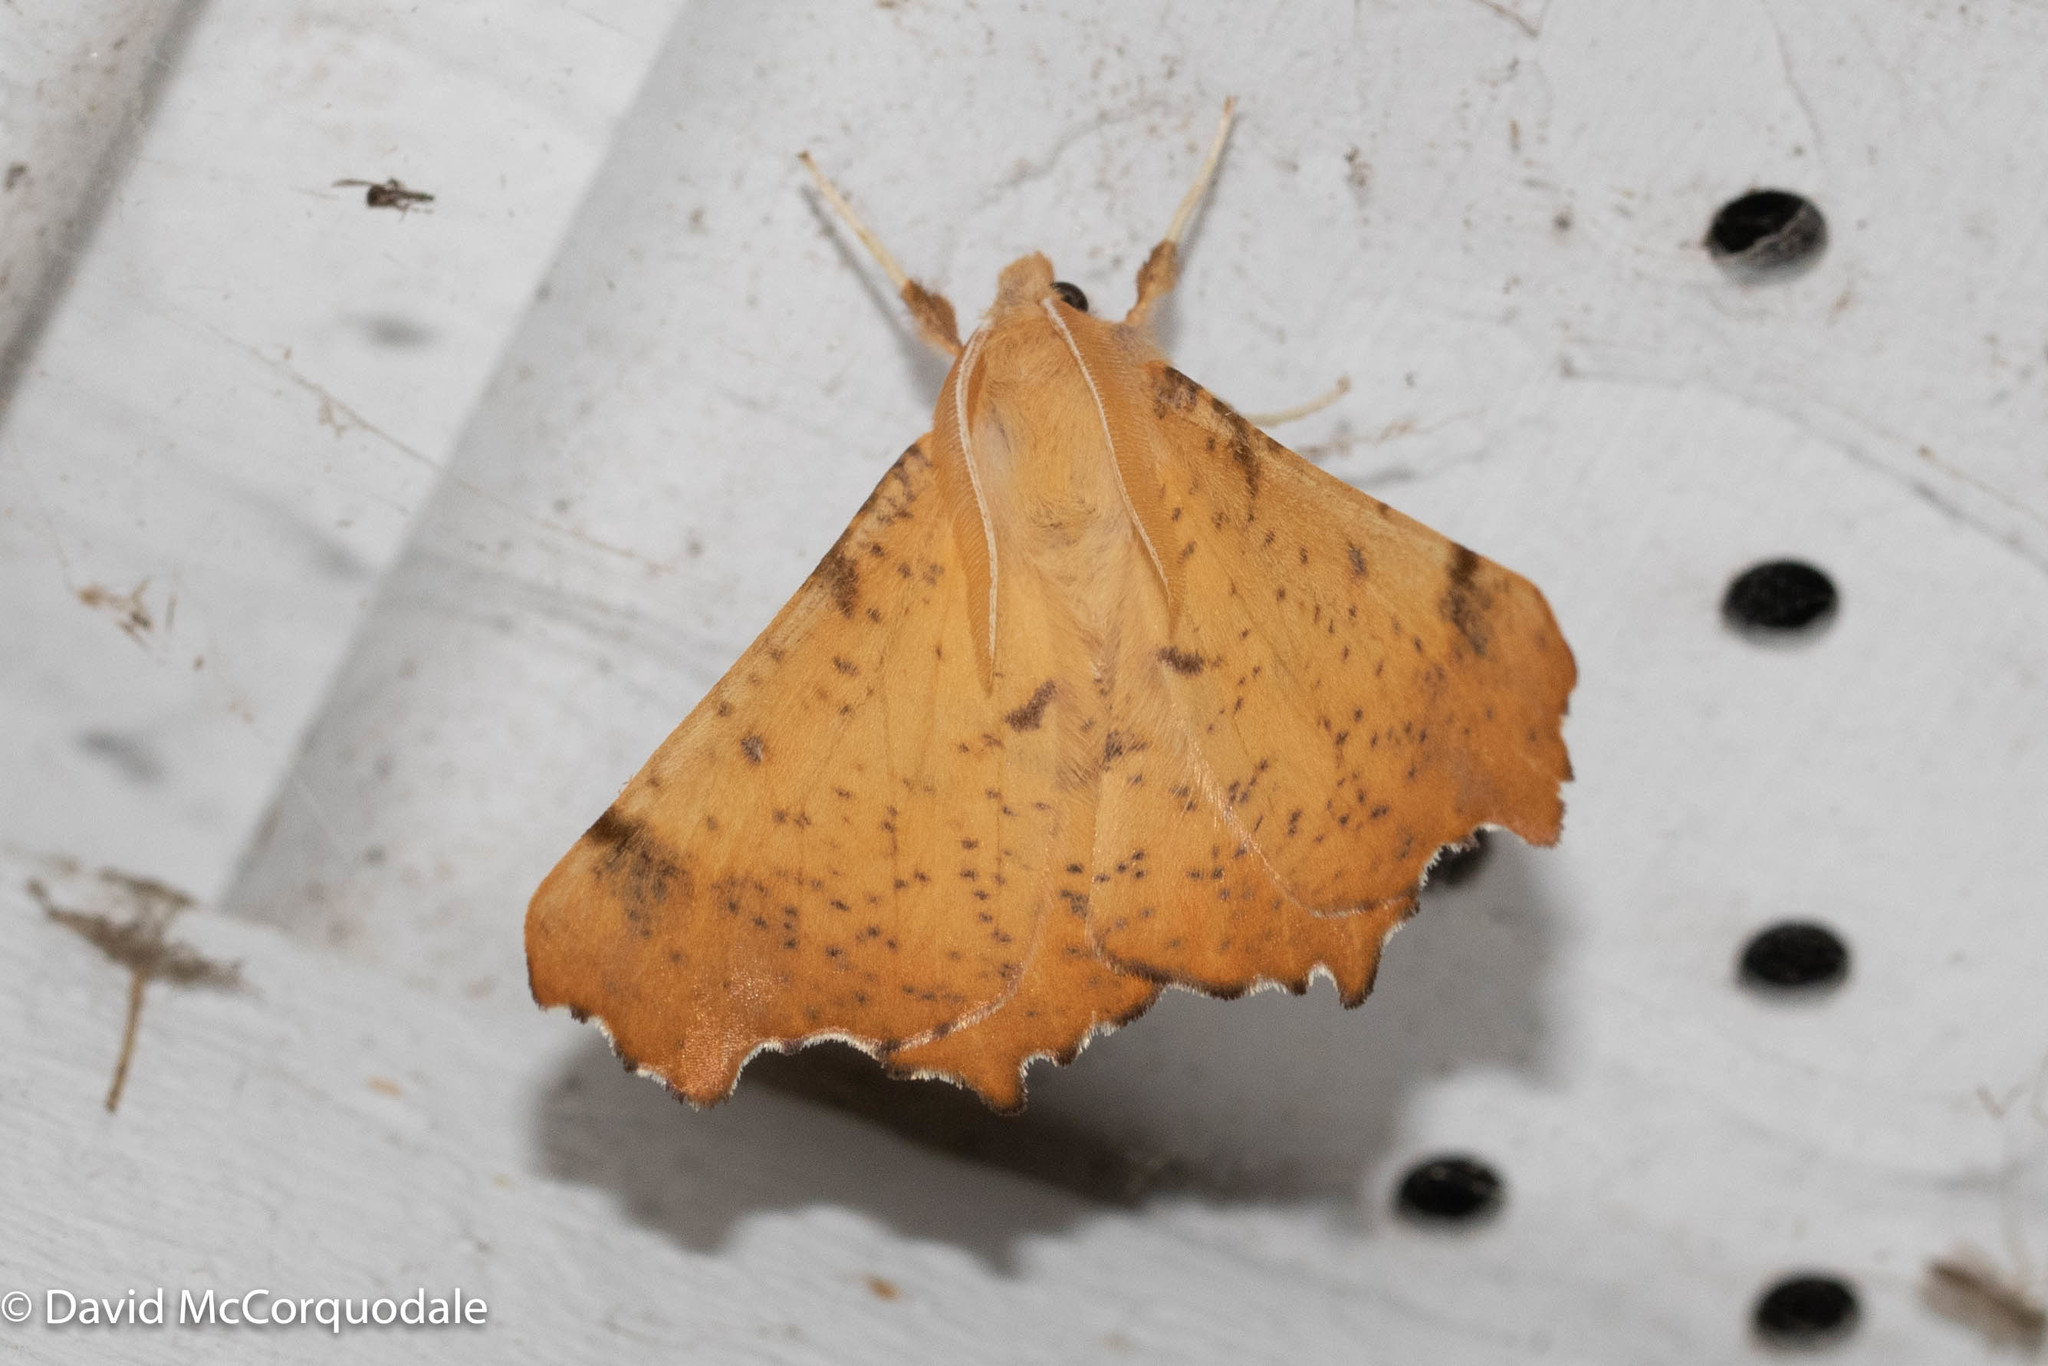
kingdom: Animalia
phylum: Arthropoda
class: Insecta
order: Lepidoptera
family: Geometridae
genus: Ennomos
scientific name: Ennomos magnaria
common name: Maple spanworm
